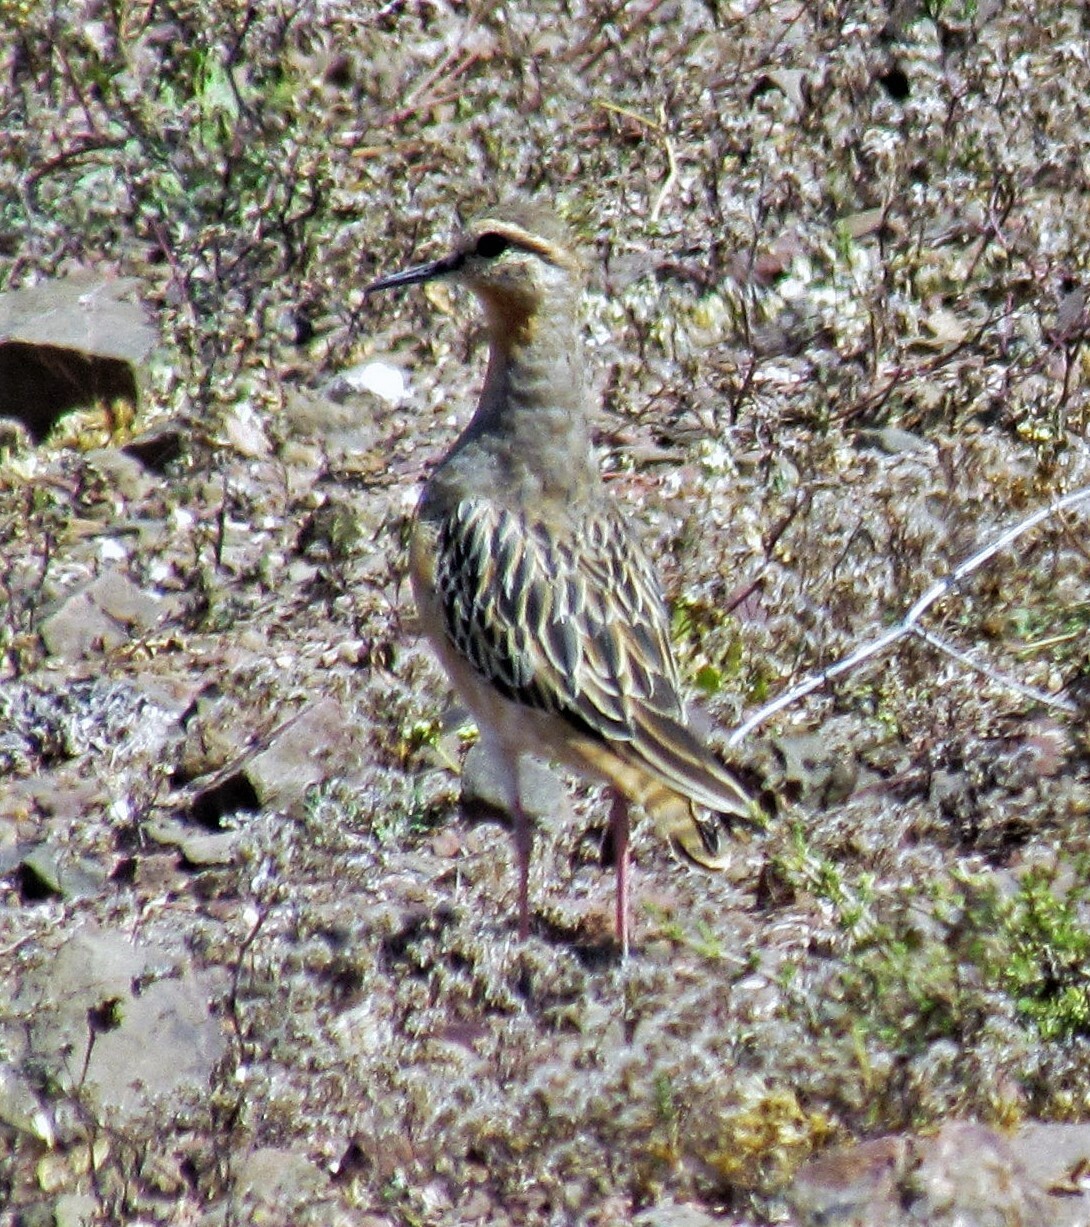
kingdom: Animalia
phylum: Chordata
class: Aves
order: Charadriiformes
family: Charadriidae
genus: Oreopholus
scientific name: Oreopholus ruficollis
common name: Tawny-throated dotterel
